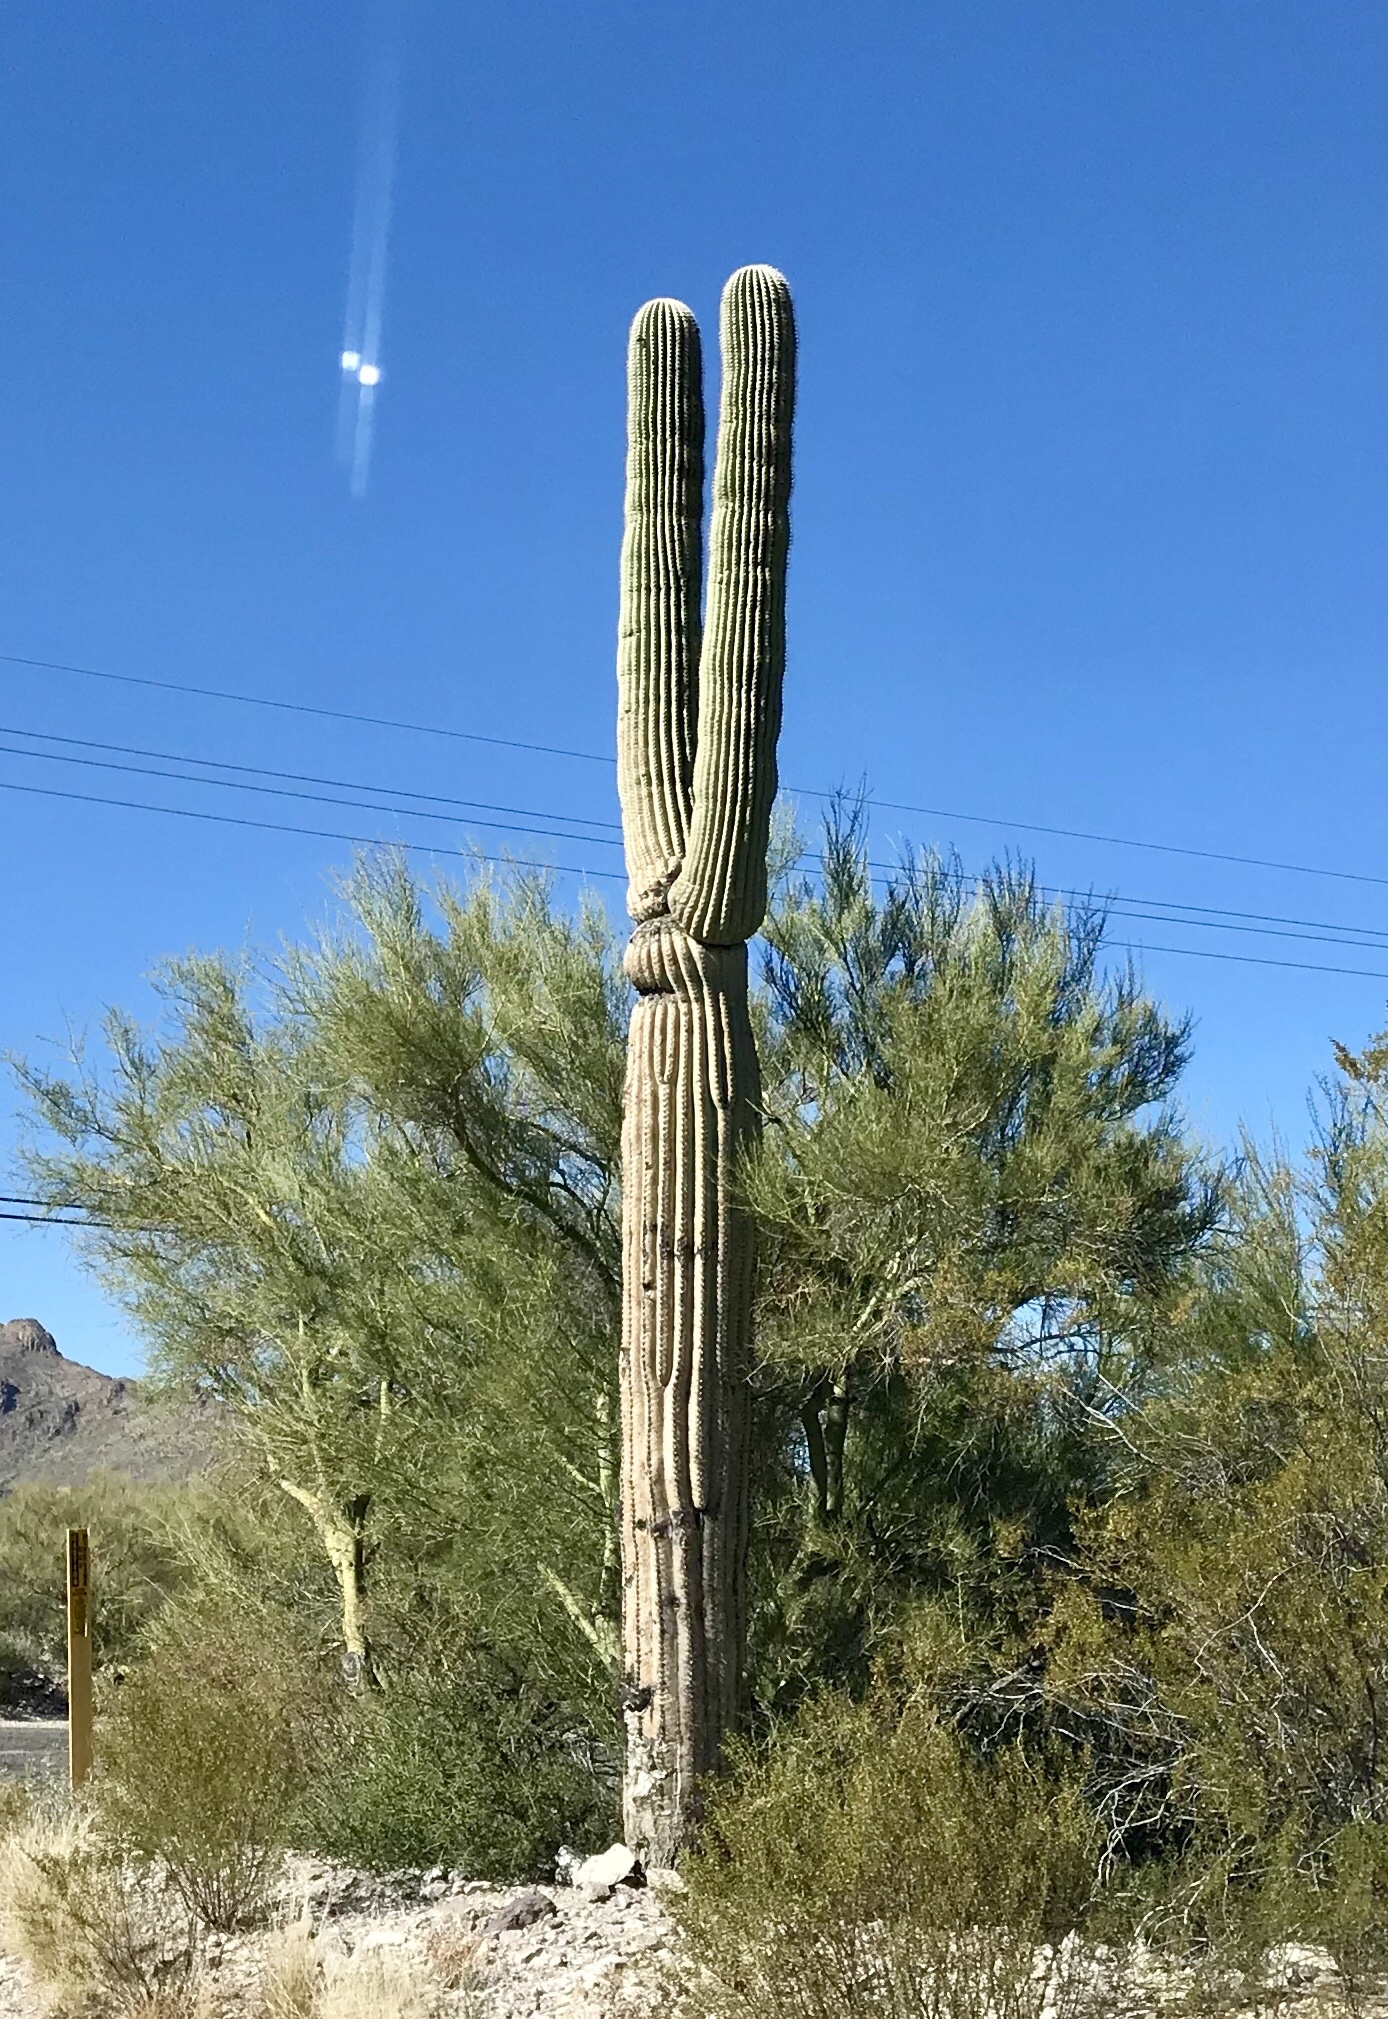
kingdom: Plantae
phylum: Tracheophyta
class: Magnoliopsida
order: Caryophyllales
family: Cactaceae
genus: Carnegiea
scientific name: Carnegiea gigantea
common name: Saguaro
